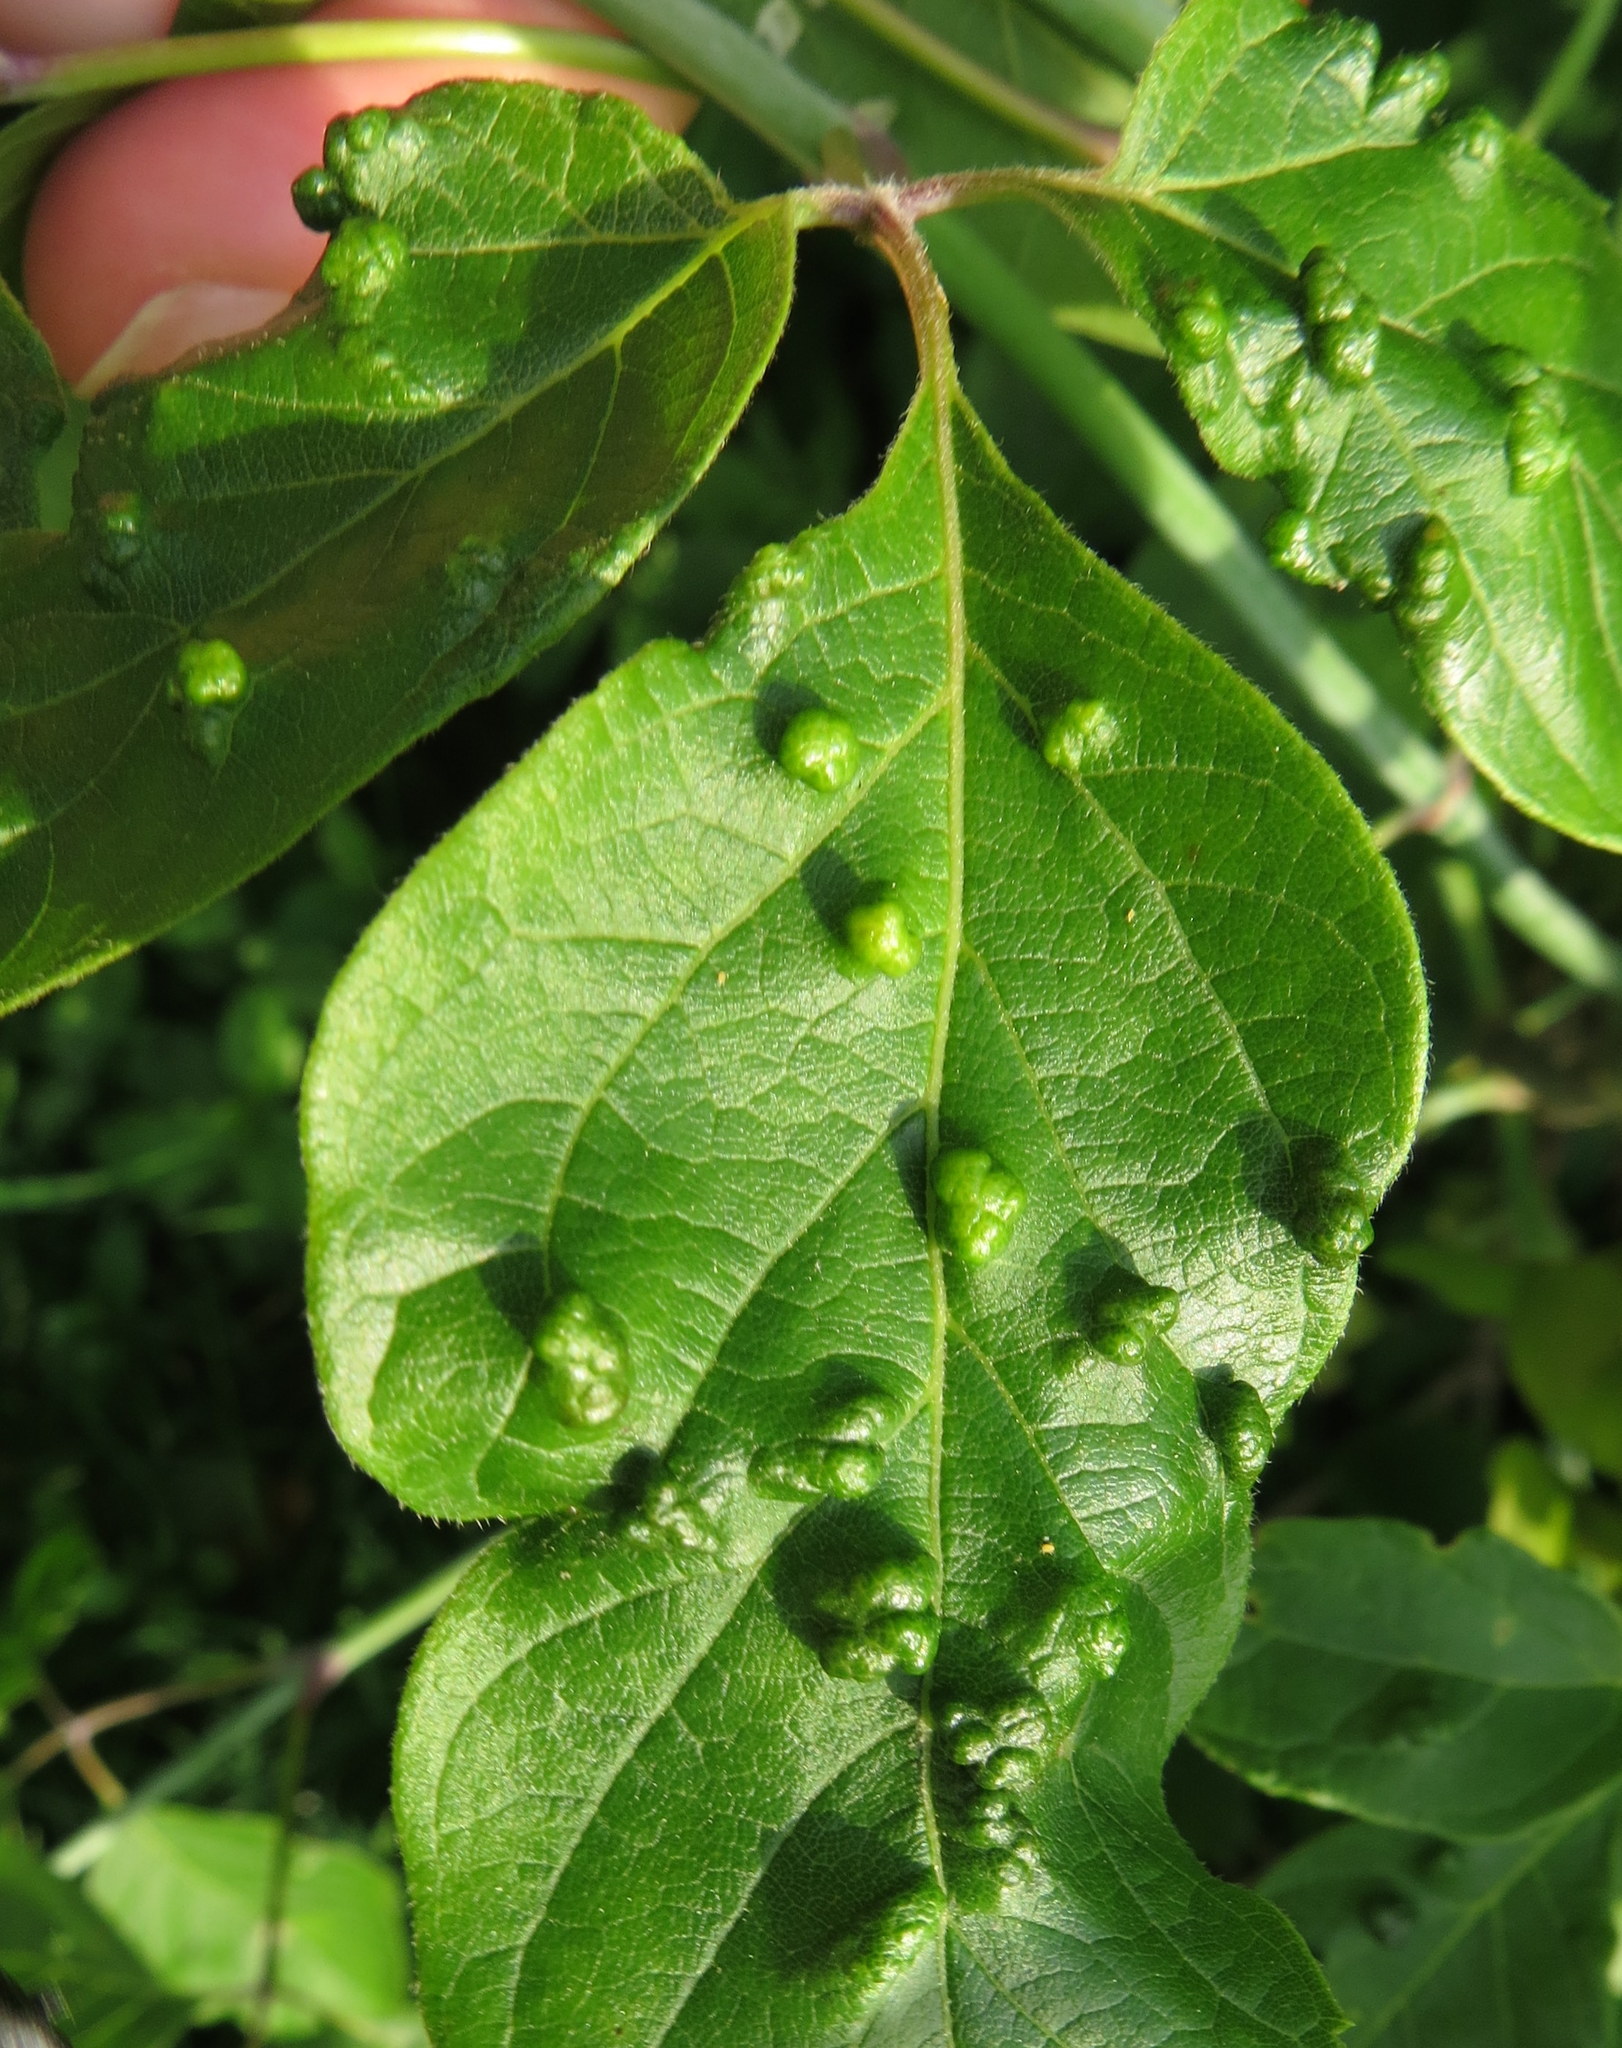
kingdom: Animalia
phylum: Arthropoda
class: Arachnida
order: Trombidiformes
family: Eriophyidae
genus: Aceria
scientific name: Aceria
